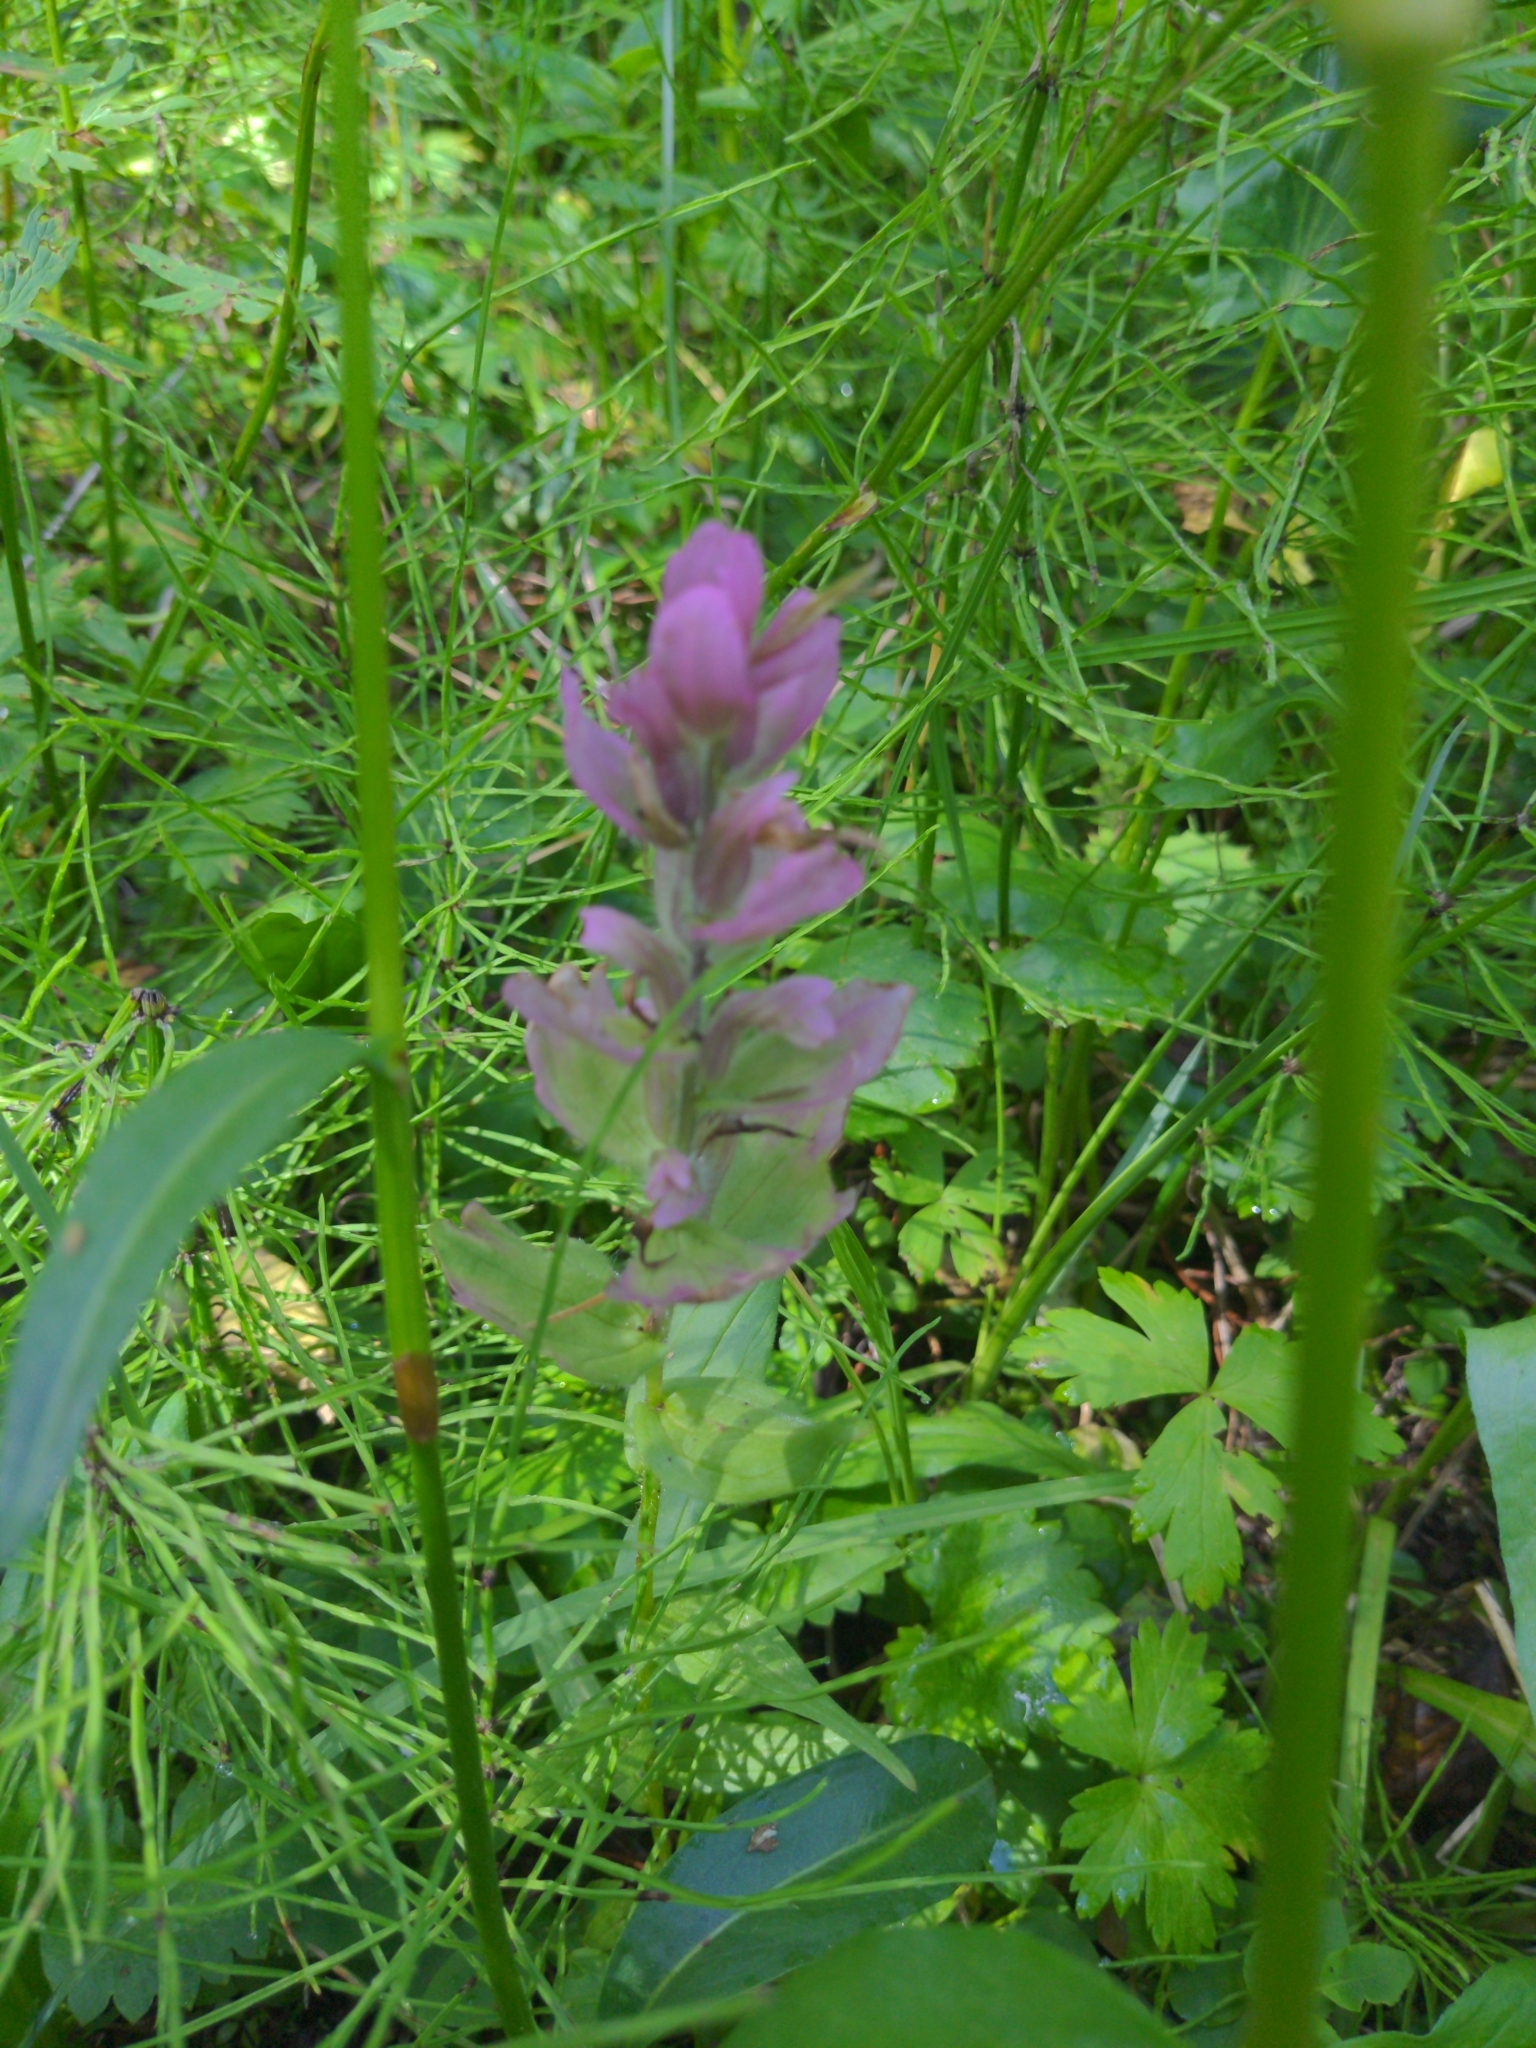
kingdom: Plantae
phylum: Tracheophyta
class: Magnoliopsida
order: Lamiales
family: Orobanchaceae
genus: Castilleja
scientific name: Castilleja rhexifolia
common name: Rocky mountain paintbrush
